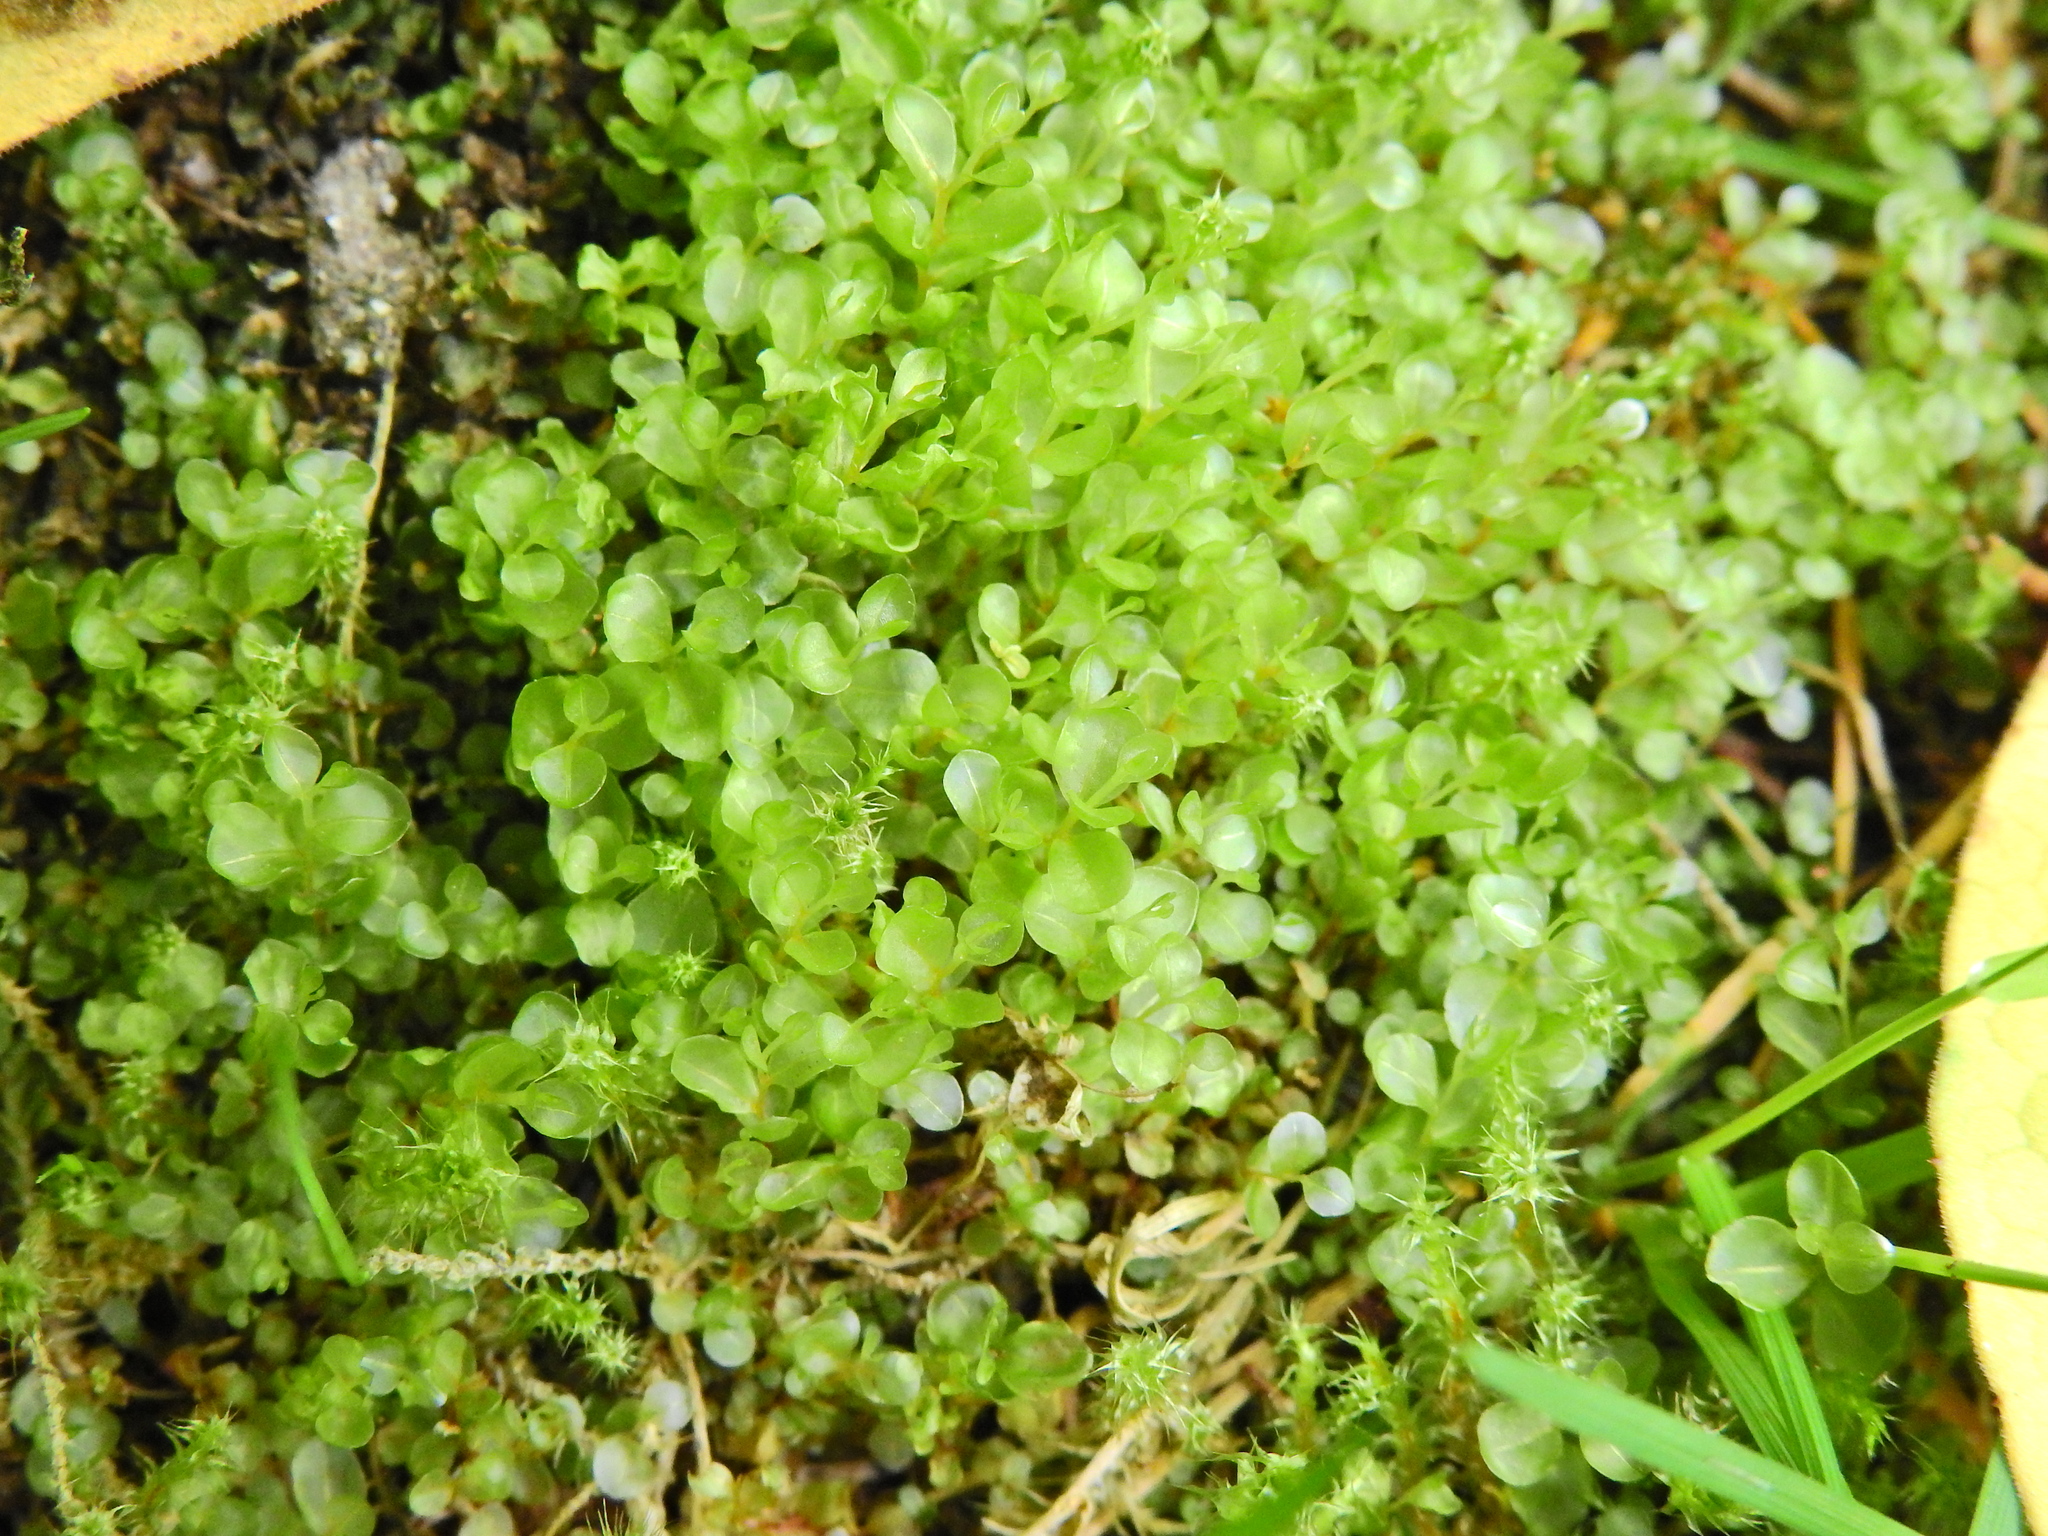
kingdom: Plantae
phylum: Bryophyta
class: Bryopsida
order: Bryales
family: Mniaceae
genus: Rhizomnium
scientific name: Rhizomnium punctatum
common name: Dotted leafy moss
